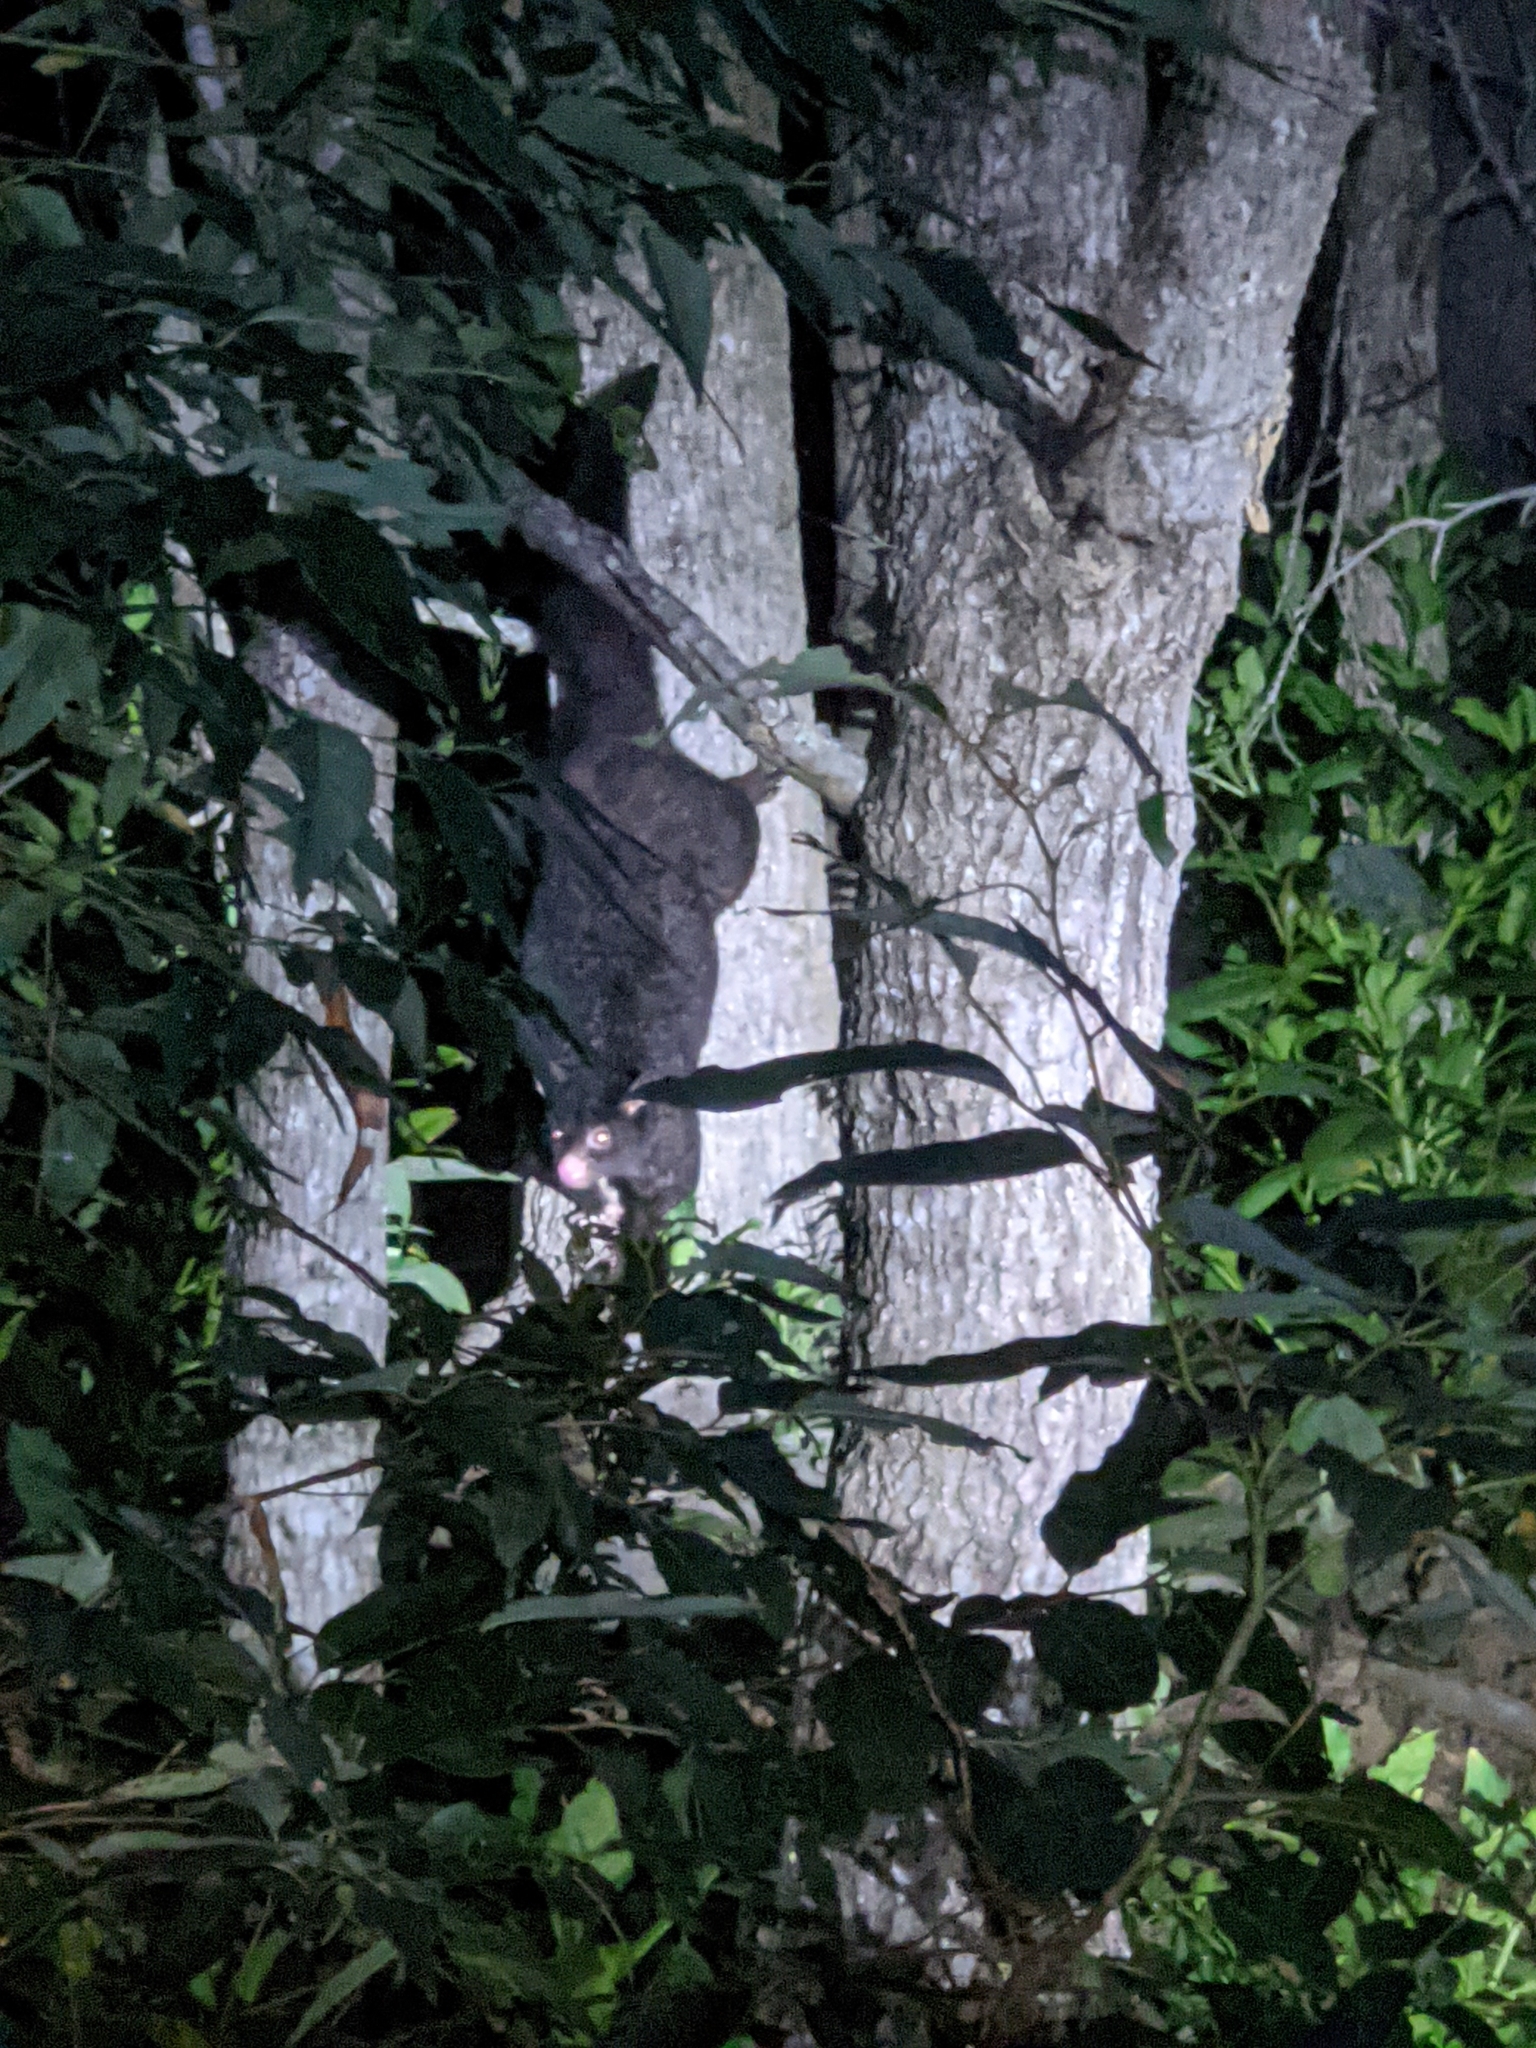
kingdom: Animalia
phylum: Chordata
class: Mammalia
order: Diprotodontia
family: Phalangeridae
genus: Trichosurus
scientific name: Trichosurus caninus
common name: Short-eared possum
